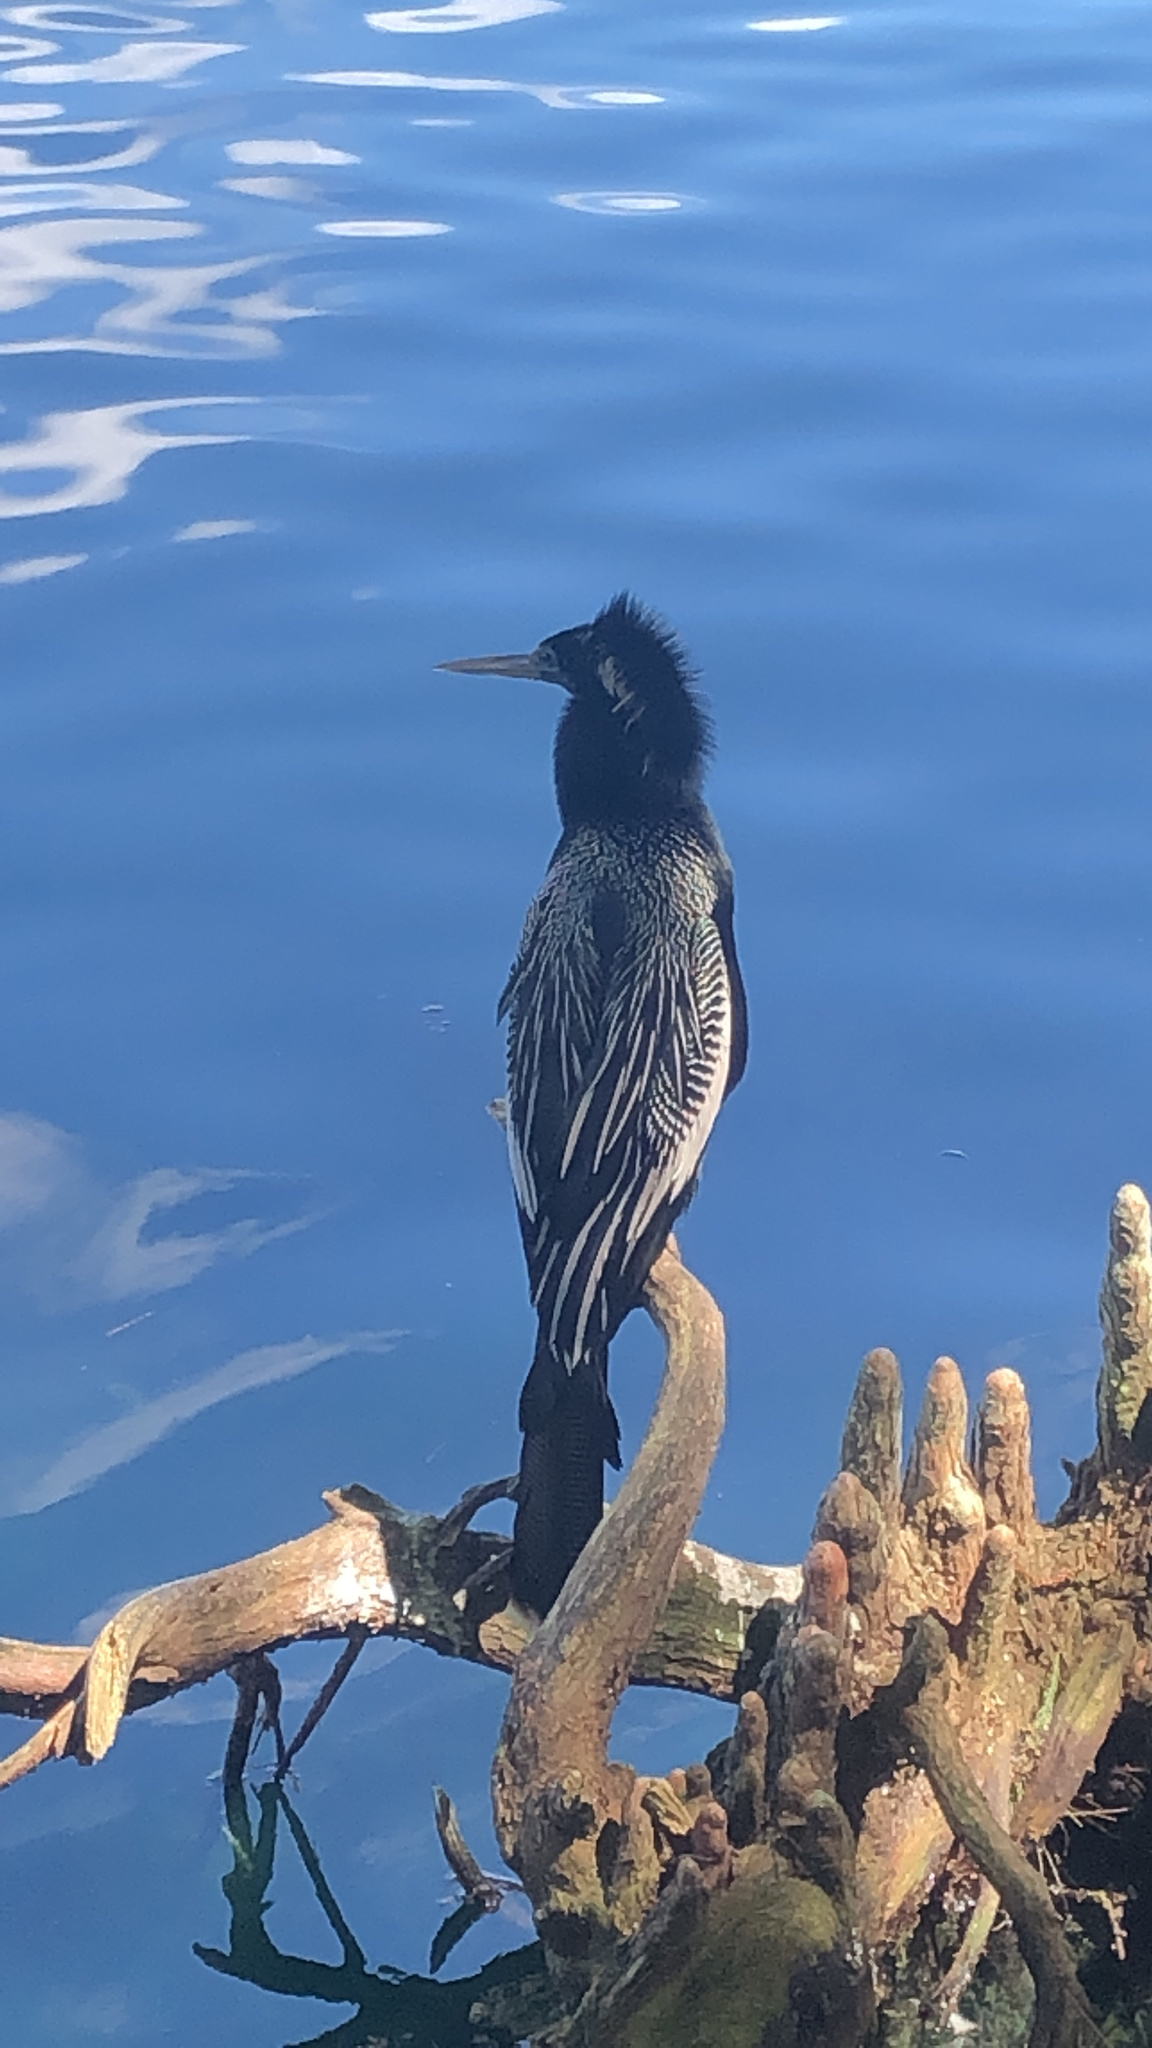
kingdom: Animalia
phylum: Chordata
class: Aves
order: Suliformes
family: Anhingidae
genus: Anhinga
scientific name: Anhinga anhinga
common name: Anhinga
